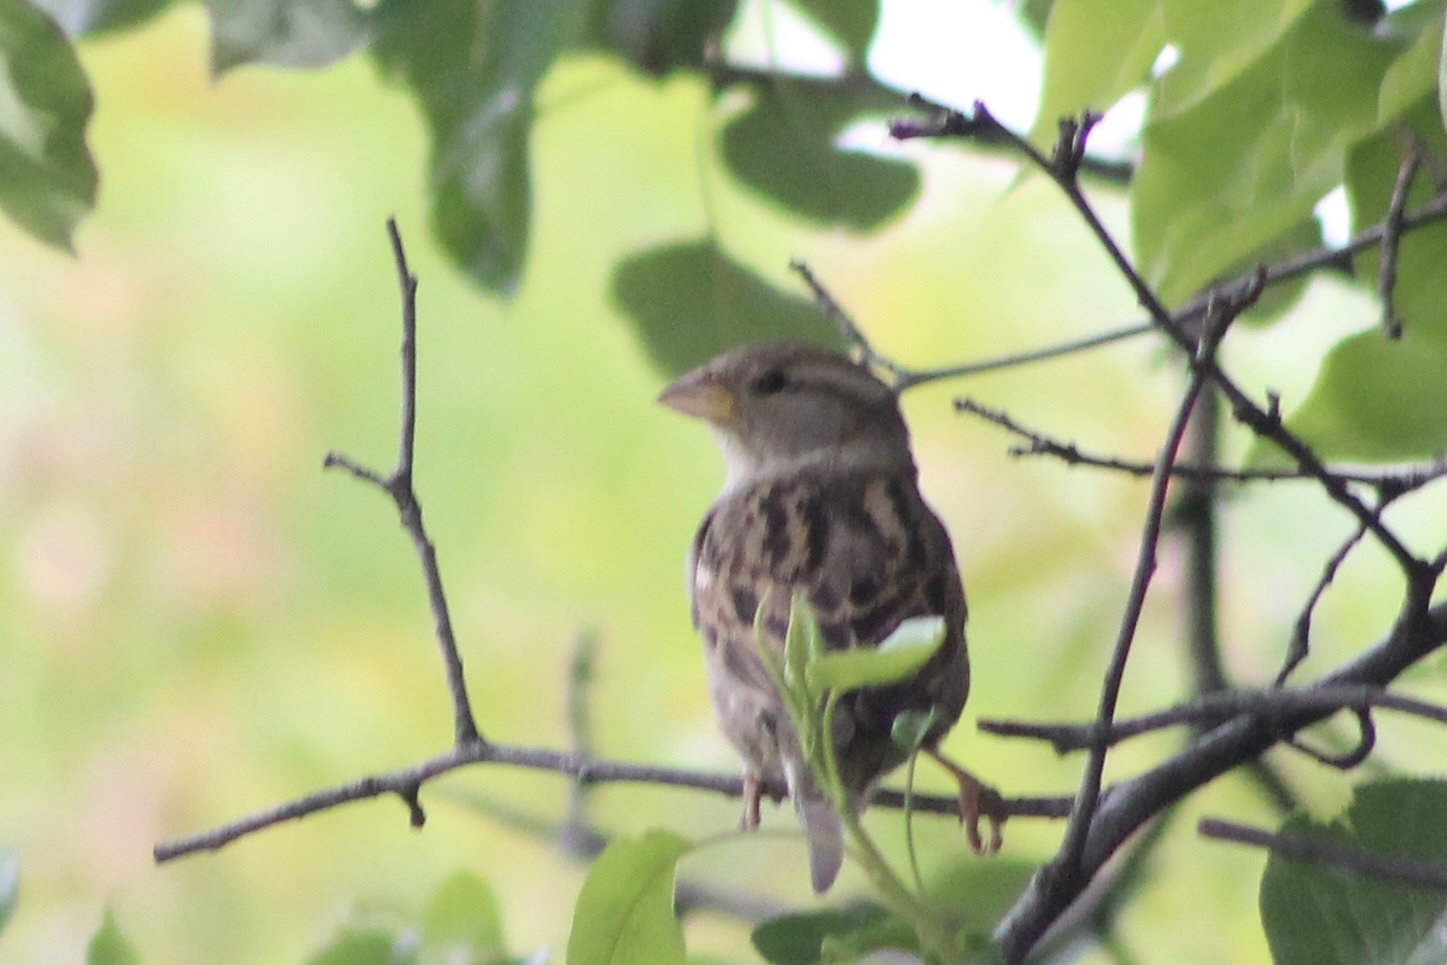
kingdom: Animalia
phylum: Chordata
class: Aves
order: Passeriformes
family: Passeridae
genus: Passer
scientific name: Passer domesticus
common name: House sparrow
